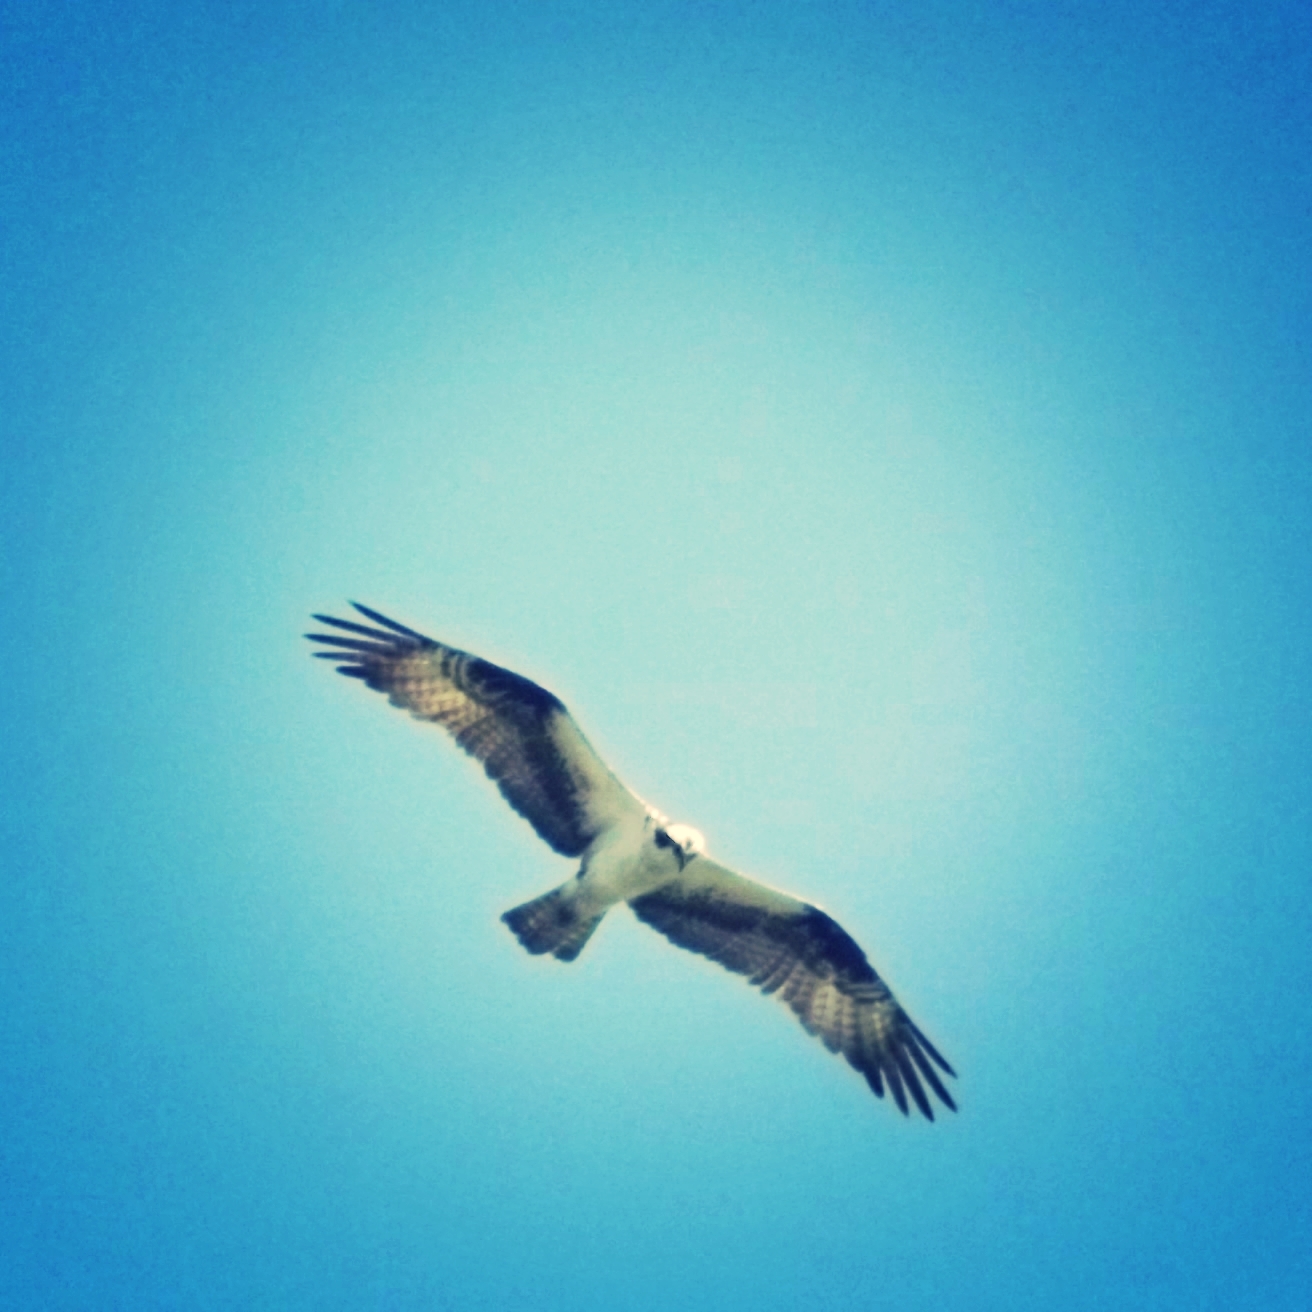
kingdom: Animalia
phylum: Chordata
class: Aves
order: Accipitriformes
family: Pandionidae
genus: Pandion
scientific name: Pandion haliaetus
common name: Osprey
